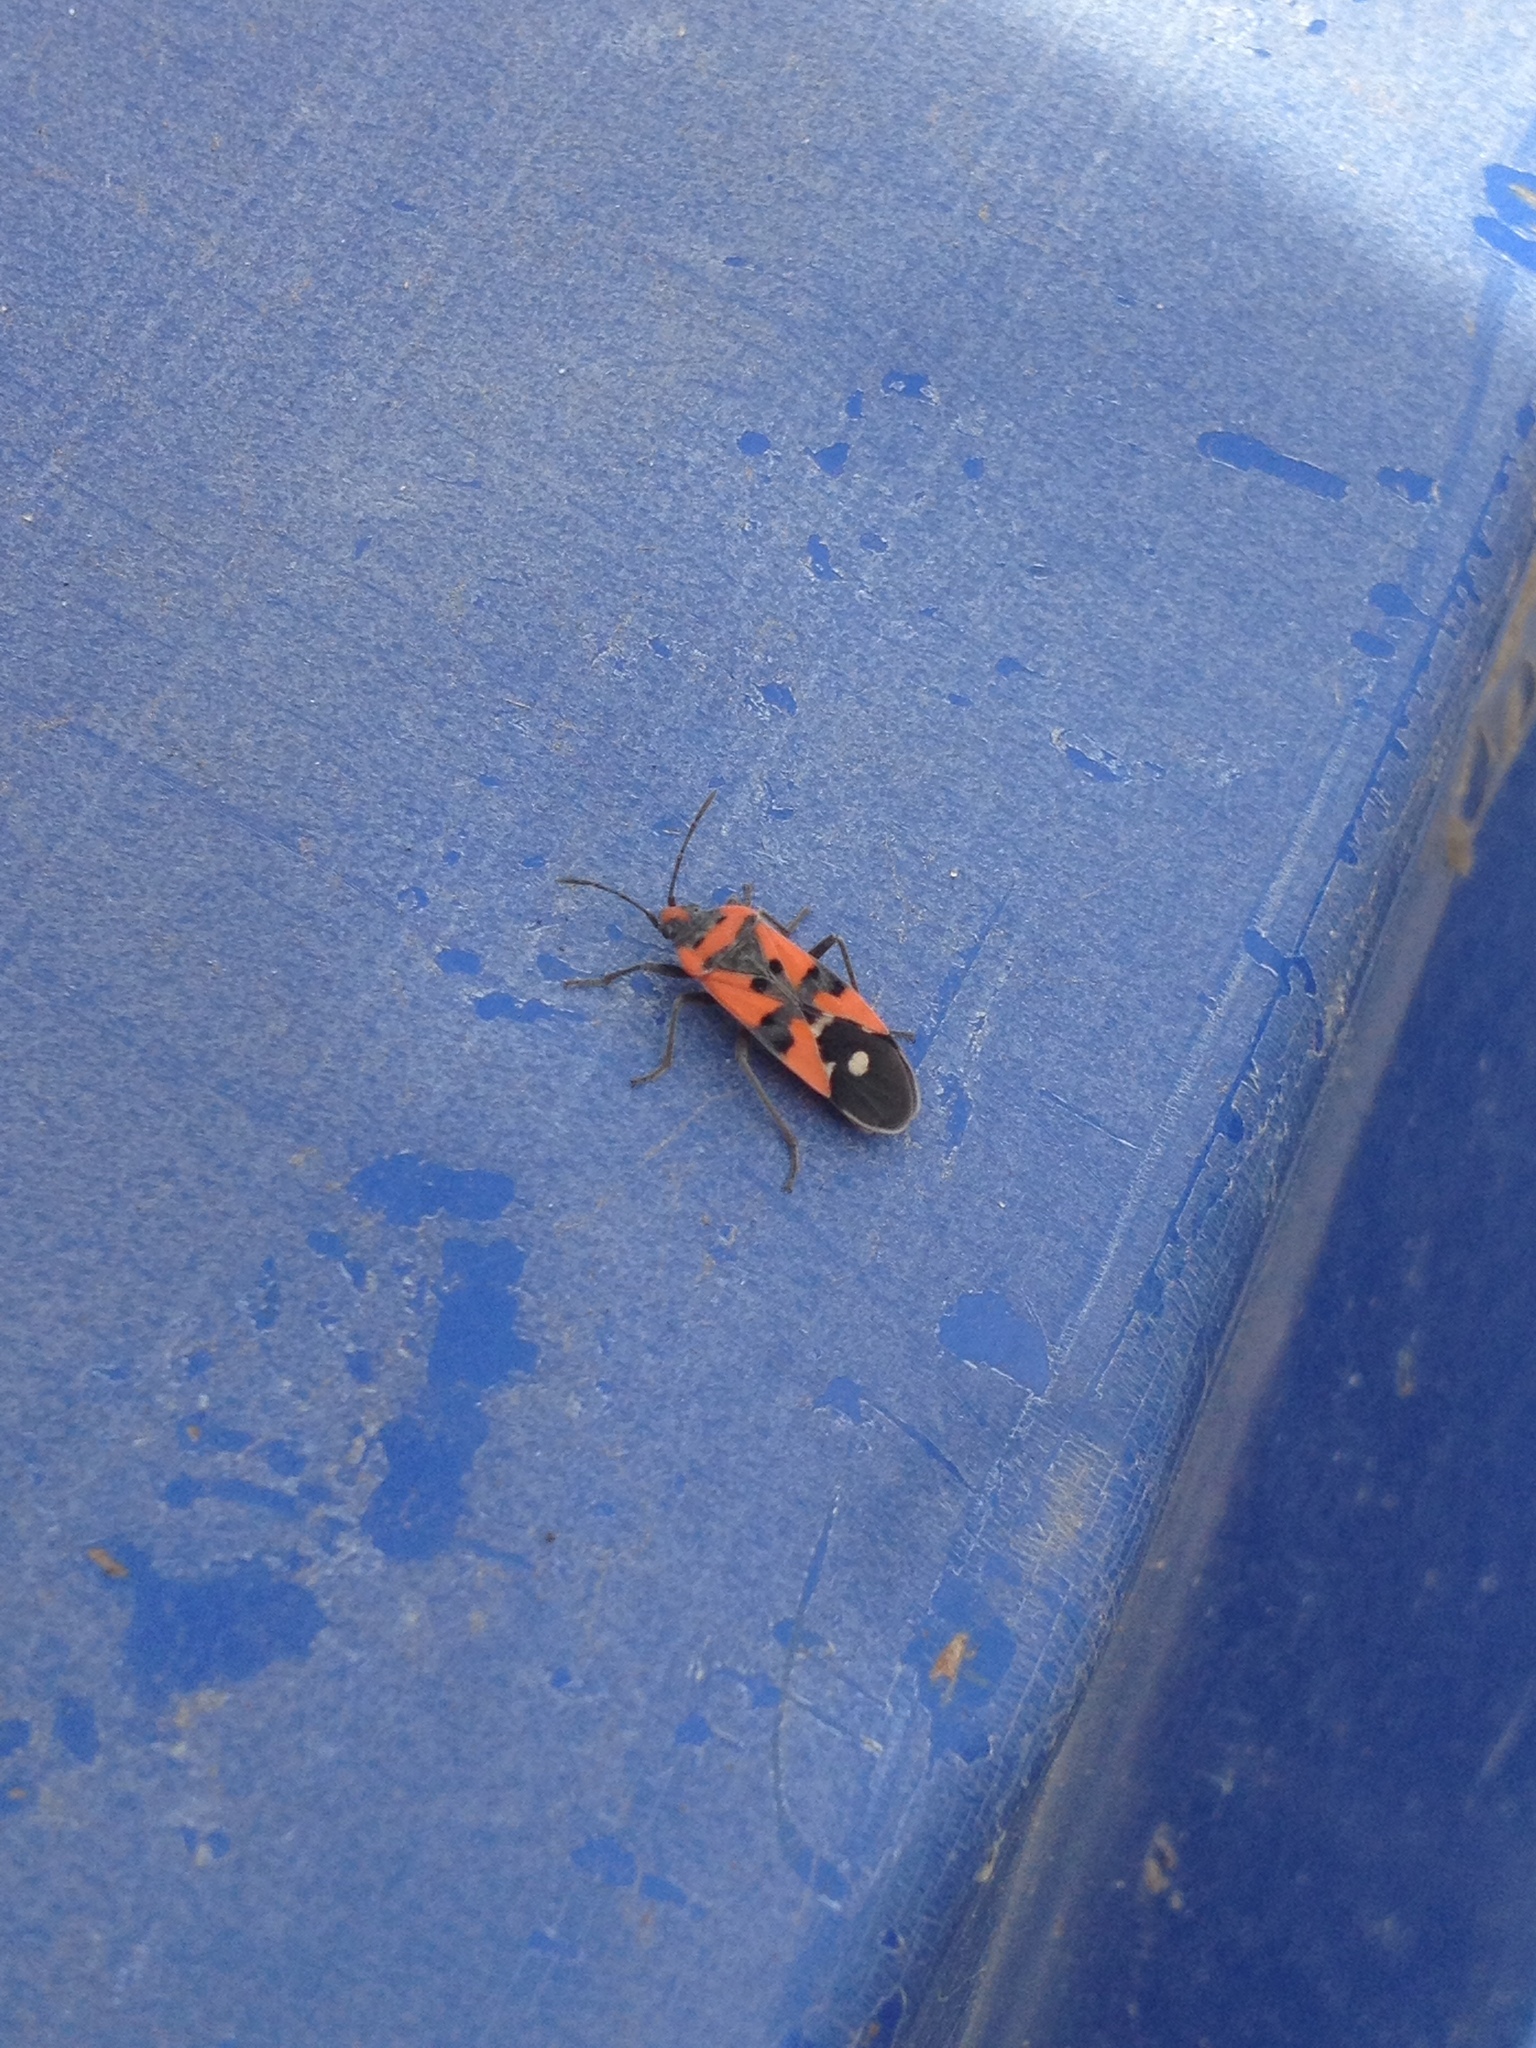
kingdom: Animalia
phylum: Arthropoda
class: Insecta
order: Hemiptera
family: Lygaeidae
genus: Lygaeus
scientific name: Lygaeus equestris
